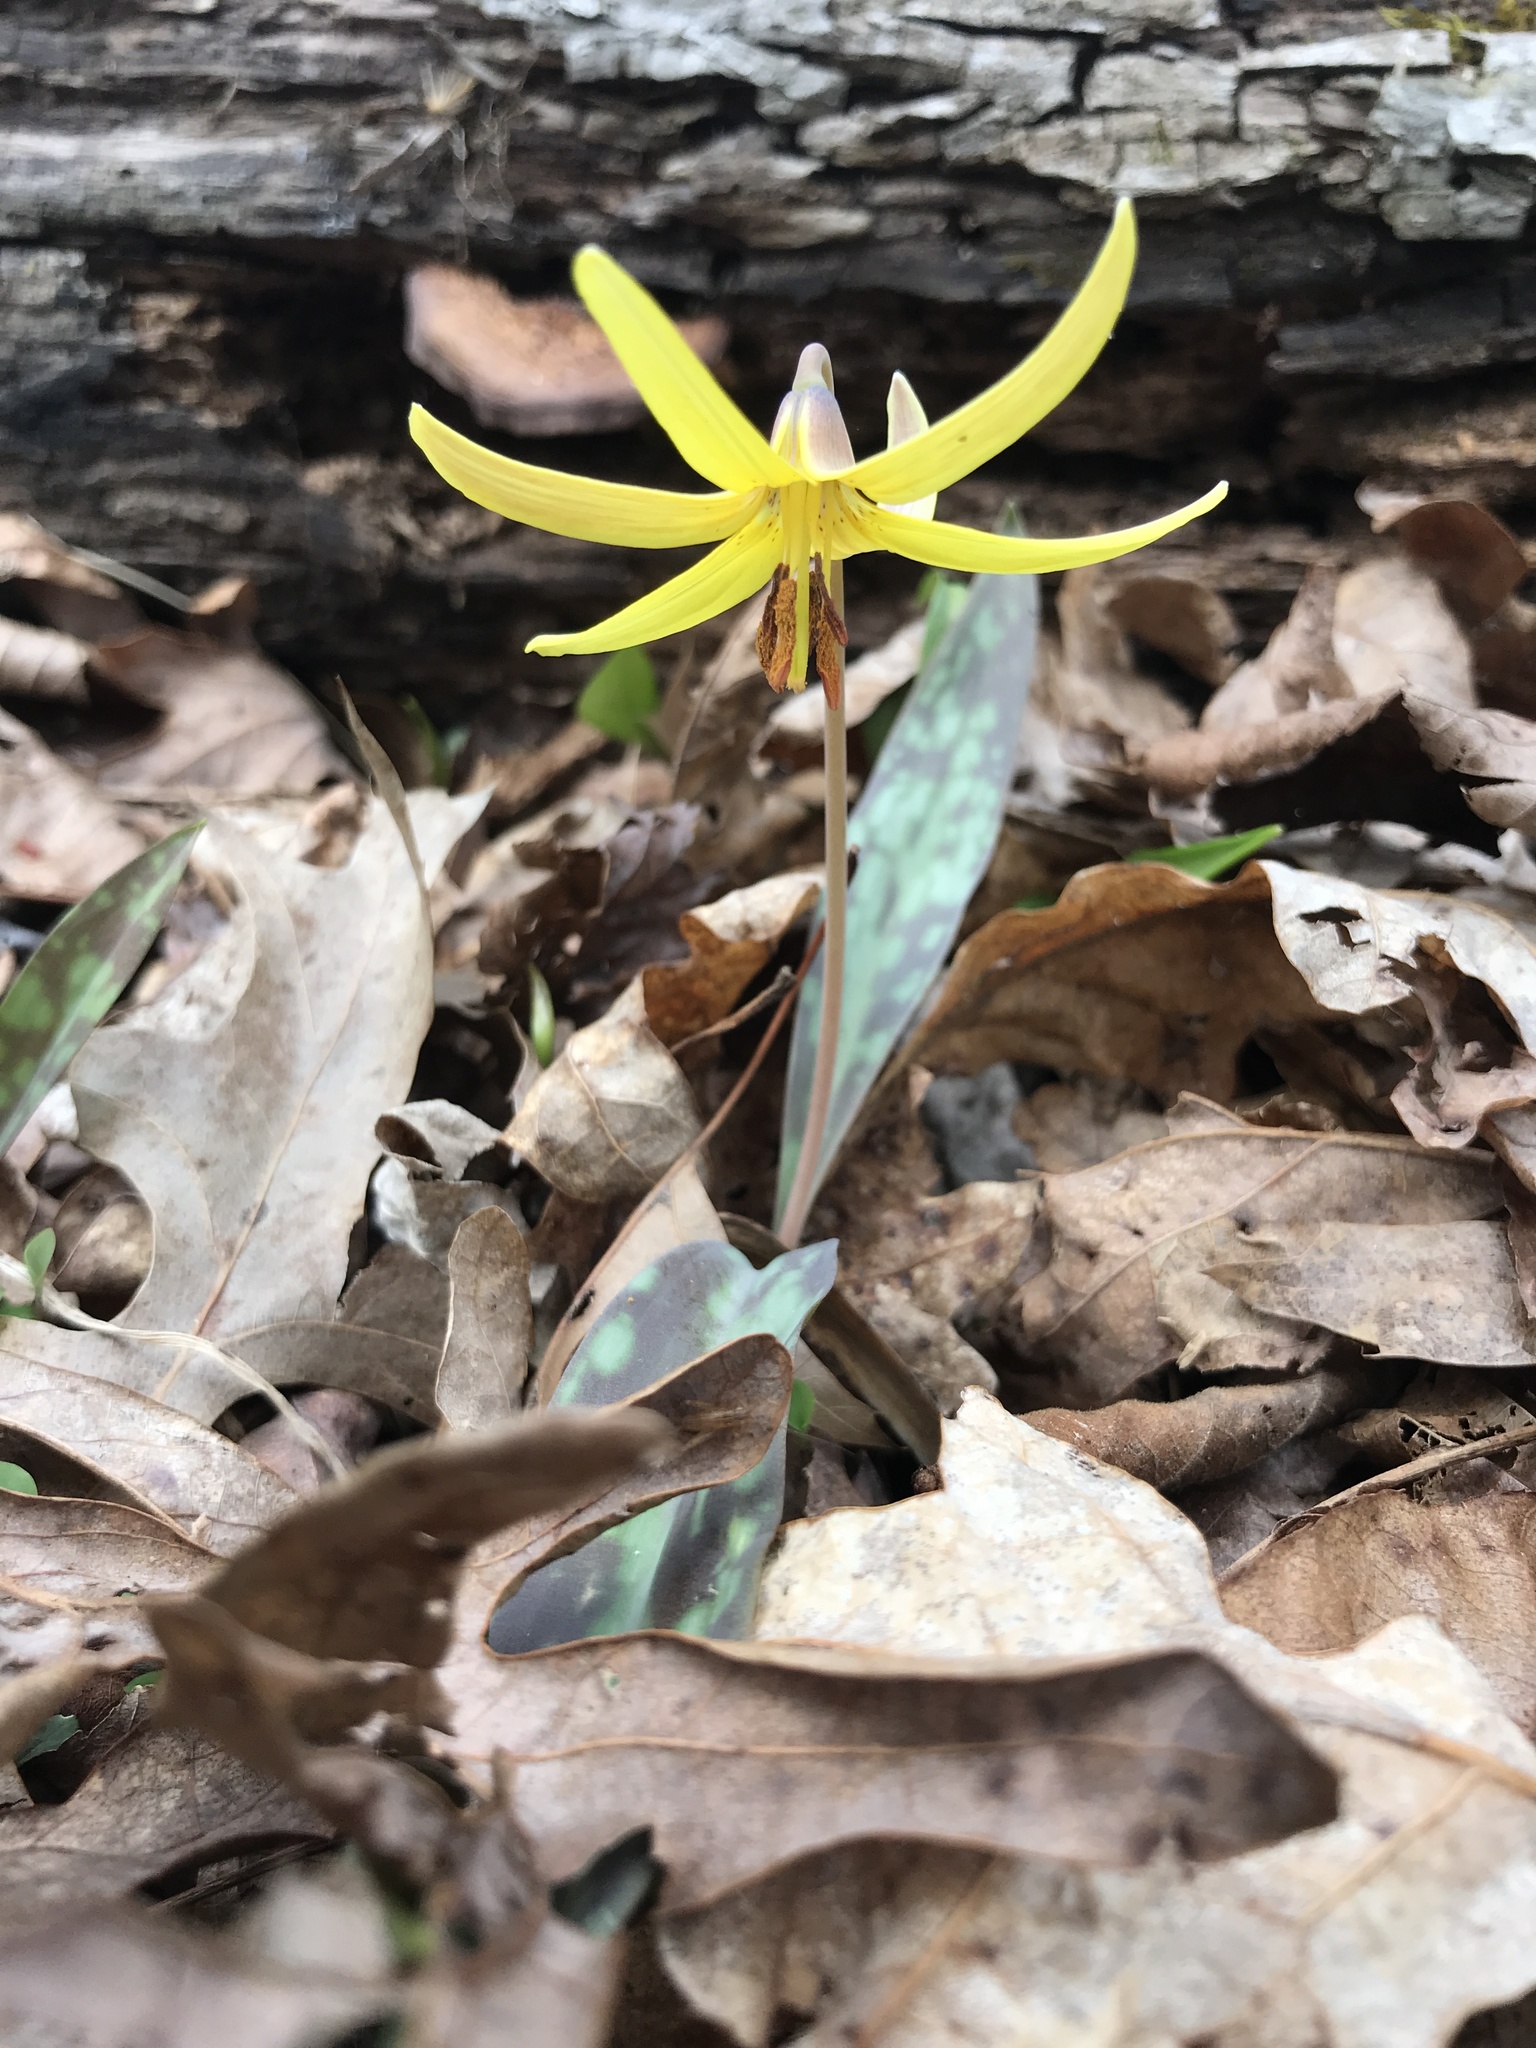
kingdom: Plantae
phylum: Tracheophyta
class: Liliopsida
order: Liliales
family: Liliaceae
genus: Erythronium
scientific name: Erythronium americanum
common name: Yellow adder's-tongue
